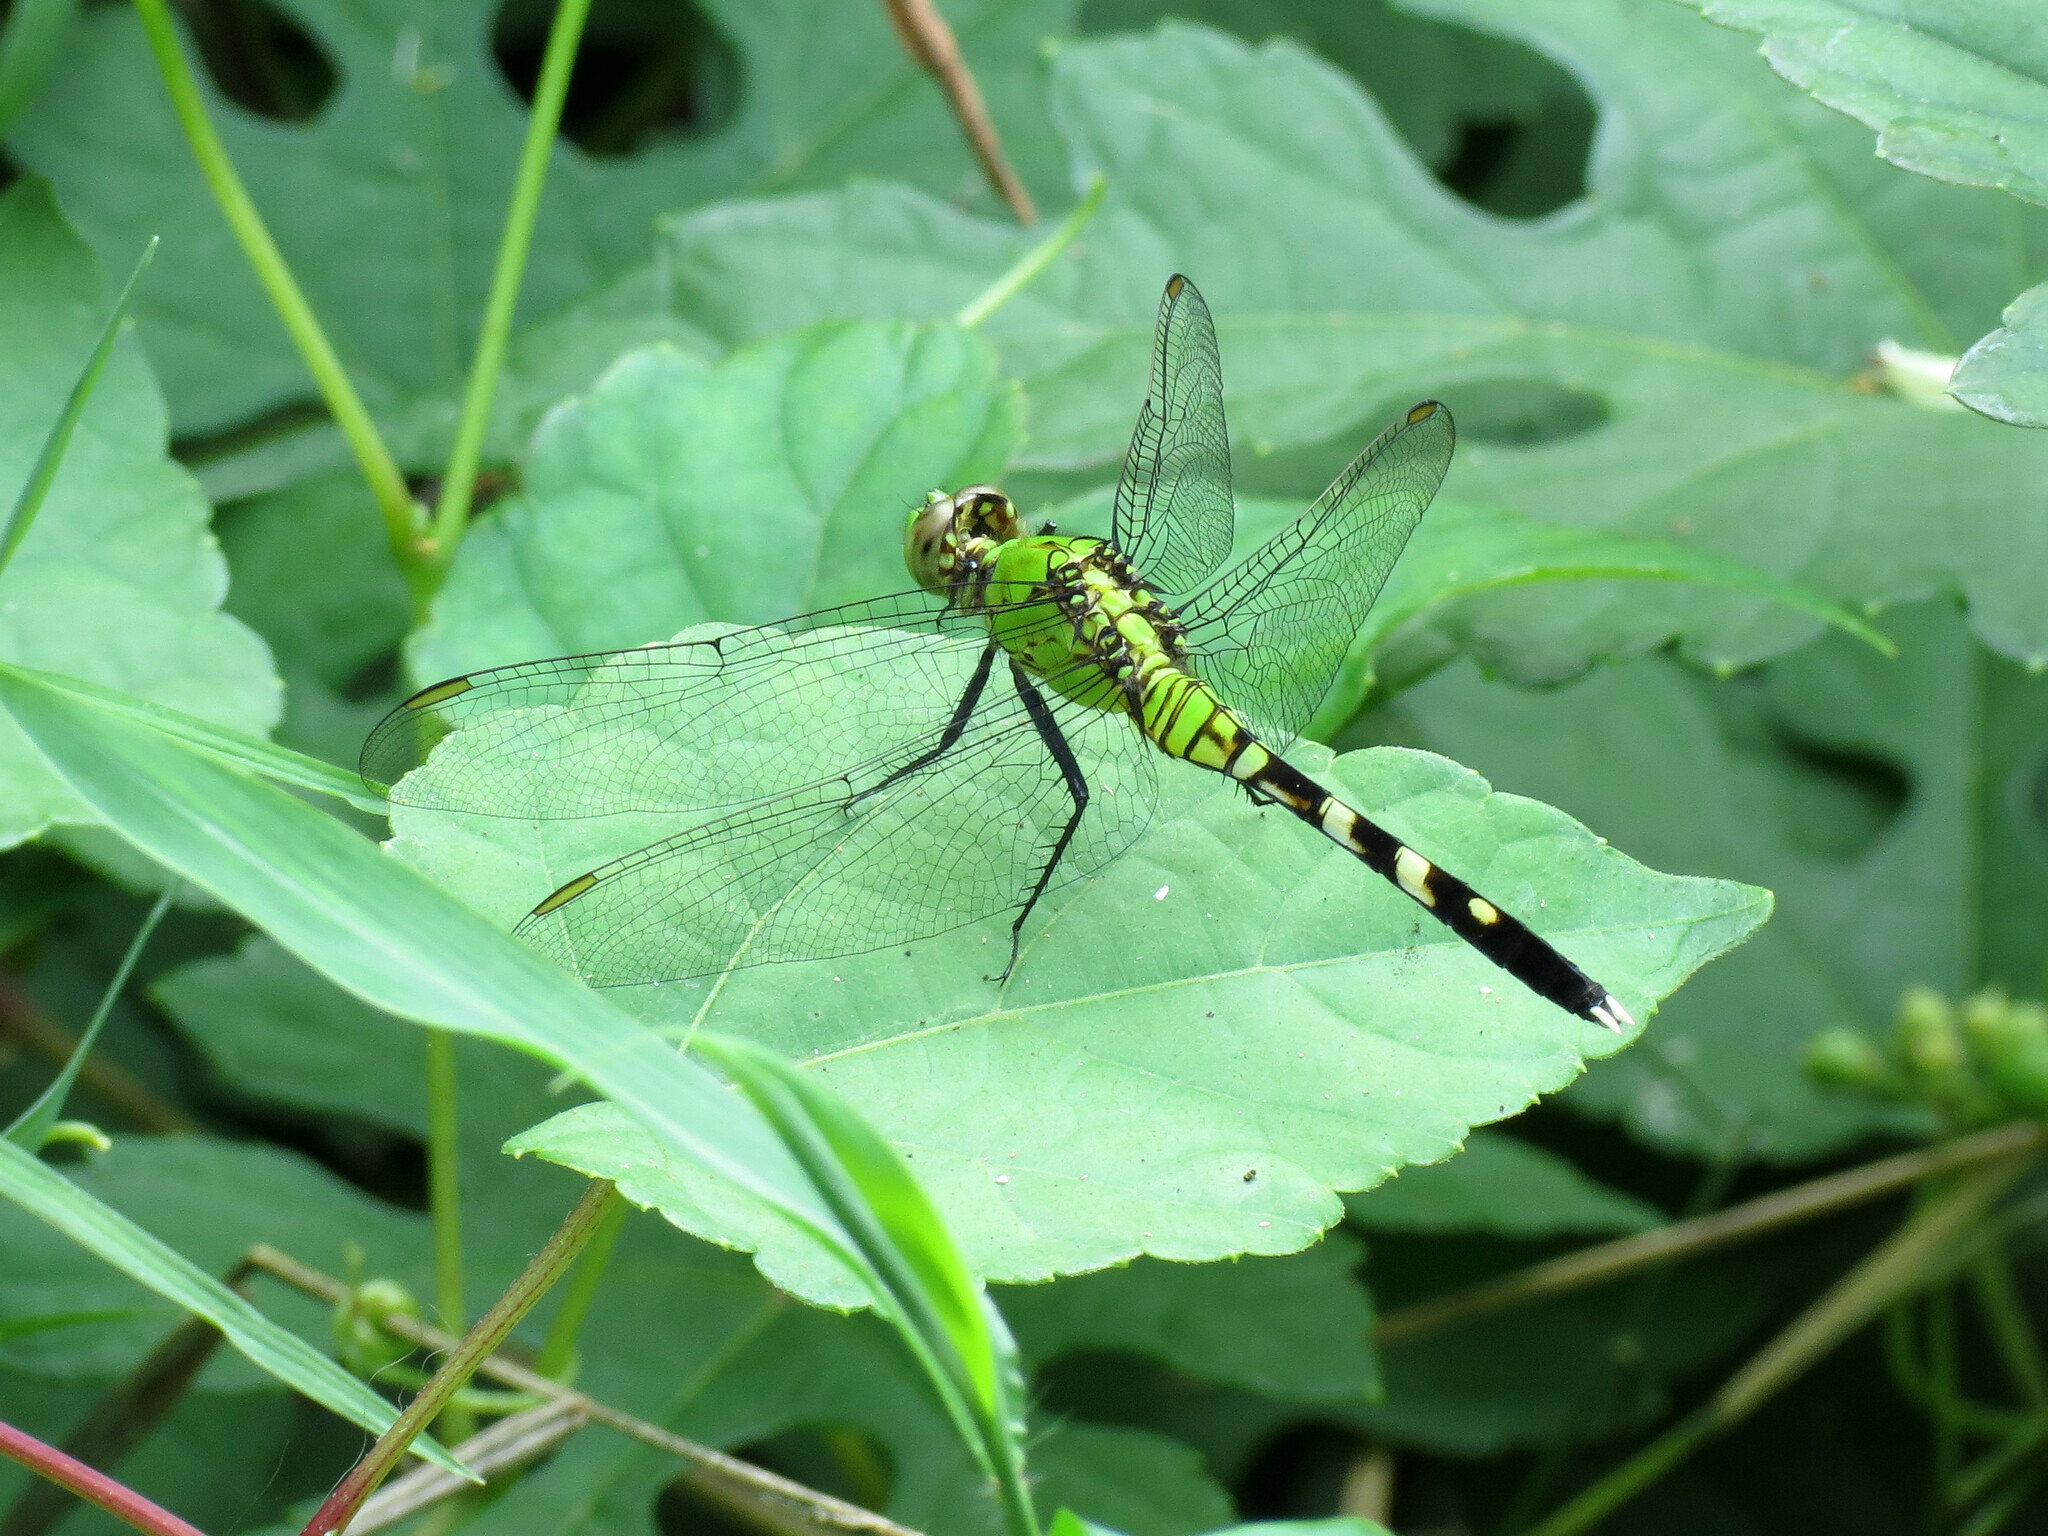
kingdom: Animalia
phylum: Arthropoda
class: Insecta
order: Odonata
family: Libellulidae
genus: Erythemis
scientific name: Erythemis simplicicollis
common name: Eastern pondhawk
